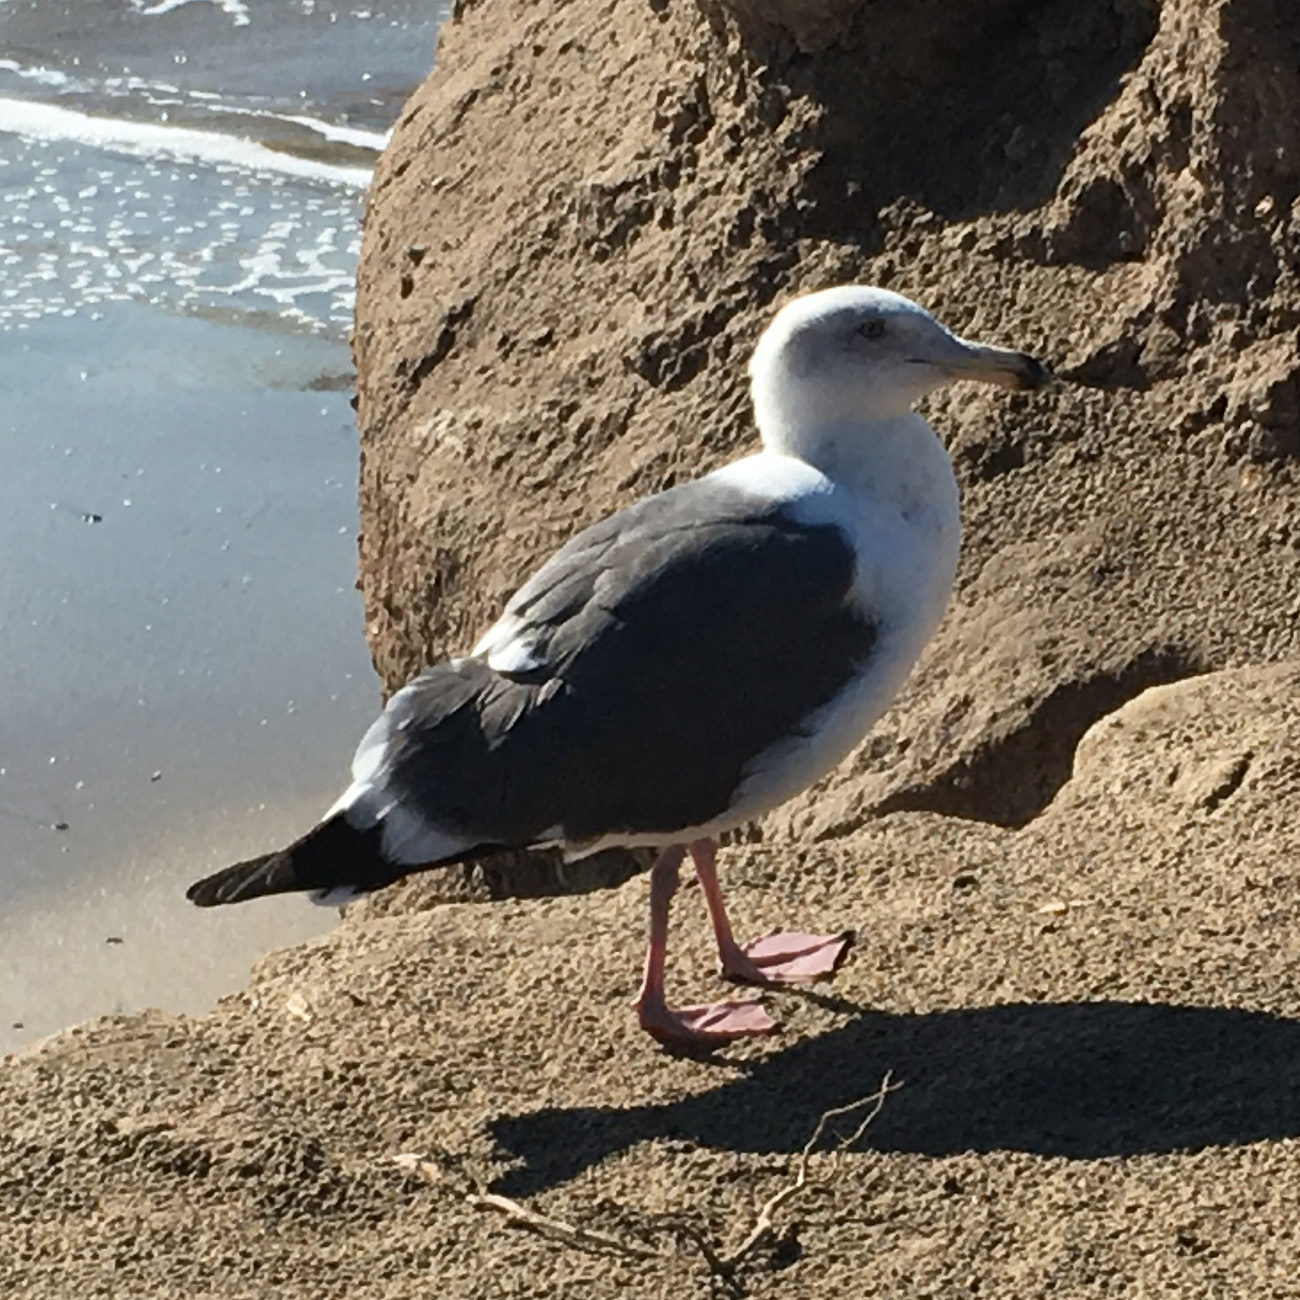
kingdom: Animalia
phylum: Chordata
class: Aves
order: Charadriiformes
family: Laridae
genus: Larus
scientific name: Larus occidentalis
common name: Western gull
